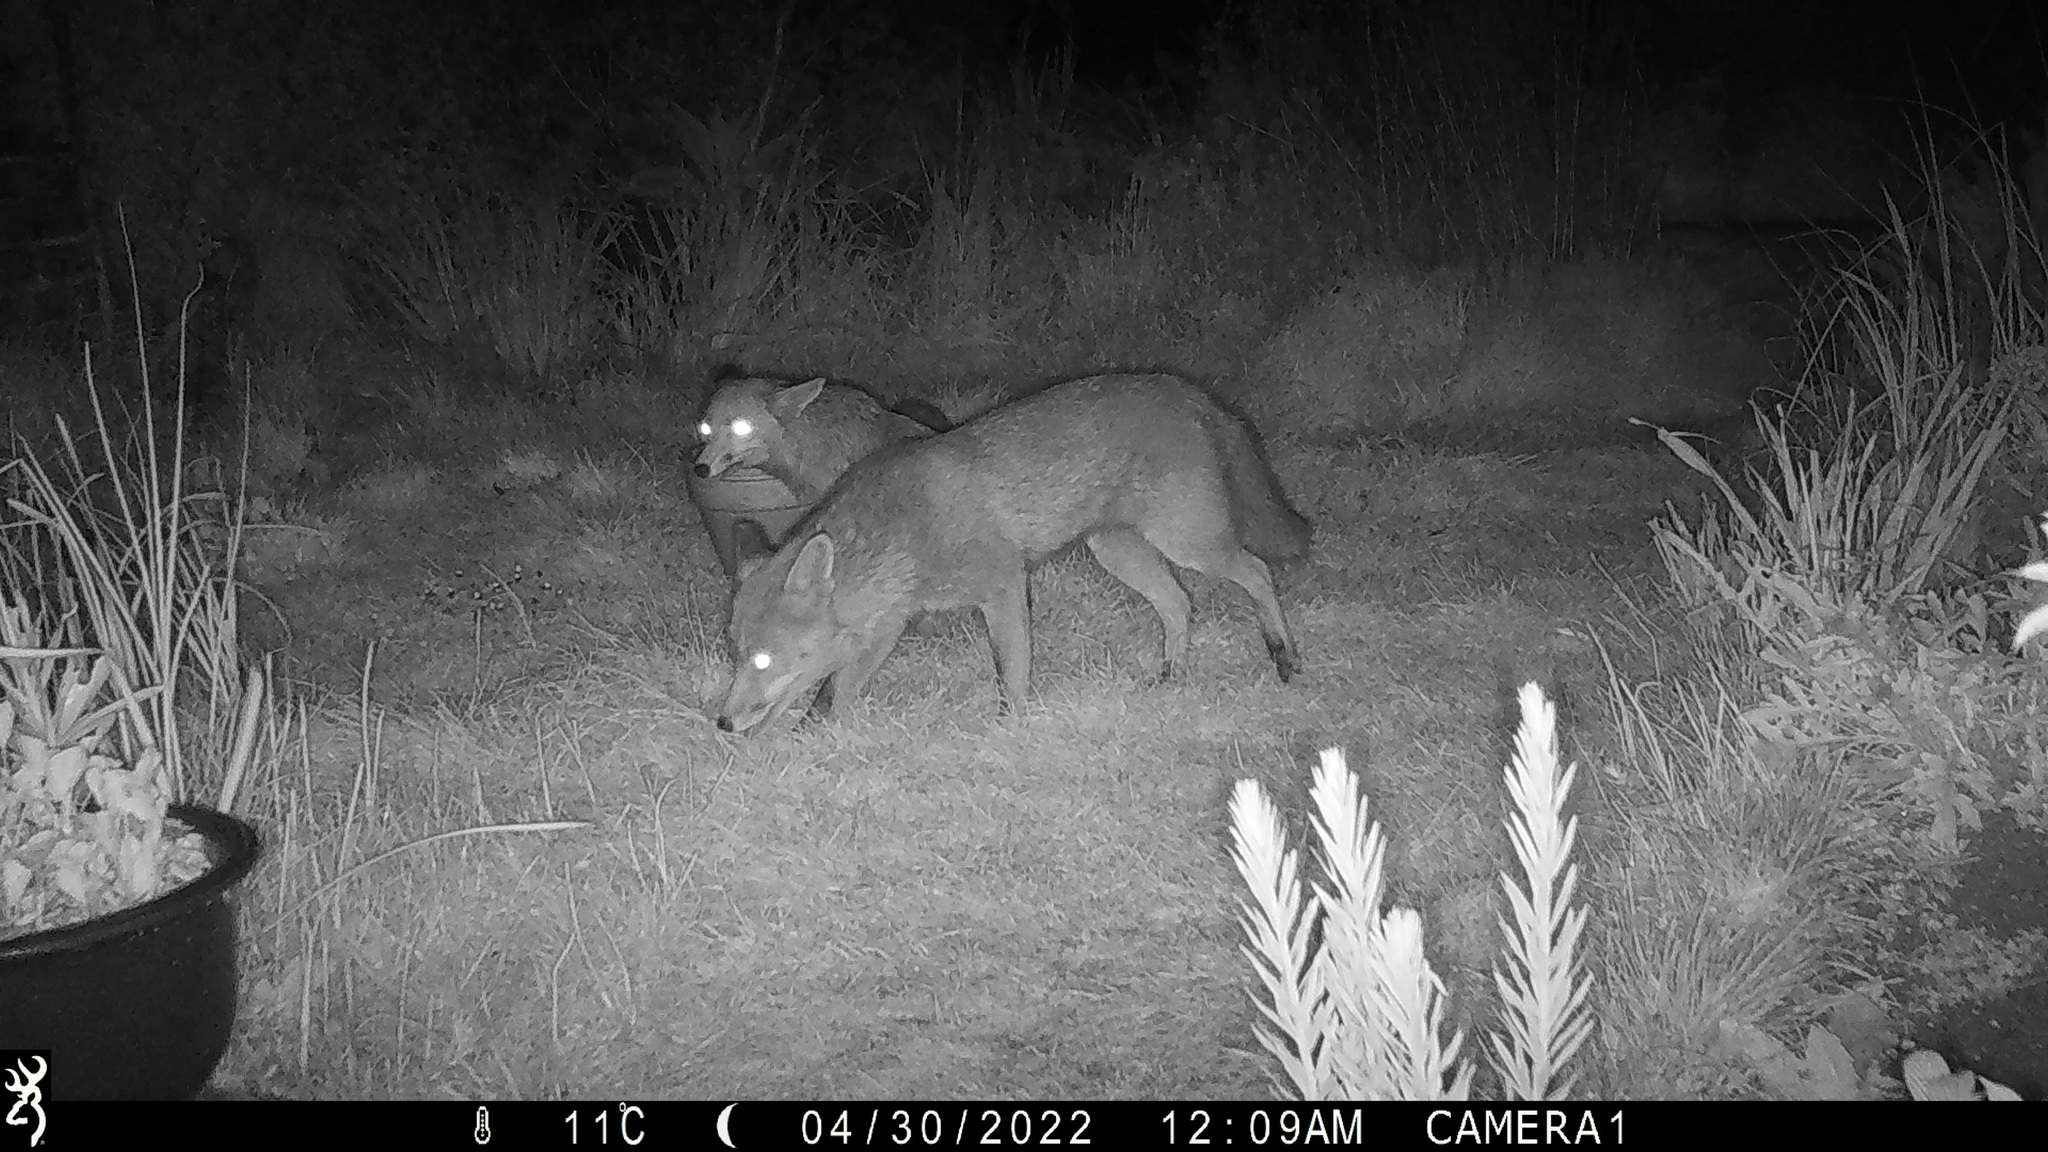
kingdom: Animalia
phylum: Chordata
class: Mammalia
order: Carnivora
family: Canidae
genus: Vulpes
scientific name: Vulpes vulpes
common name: Red fox
